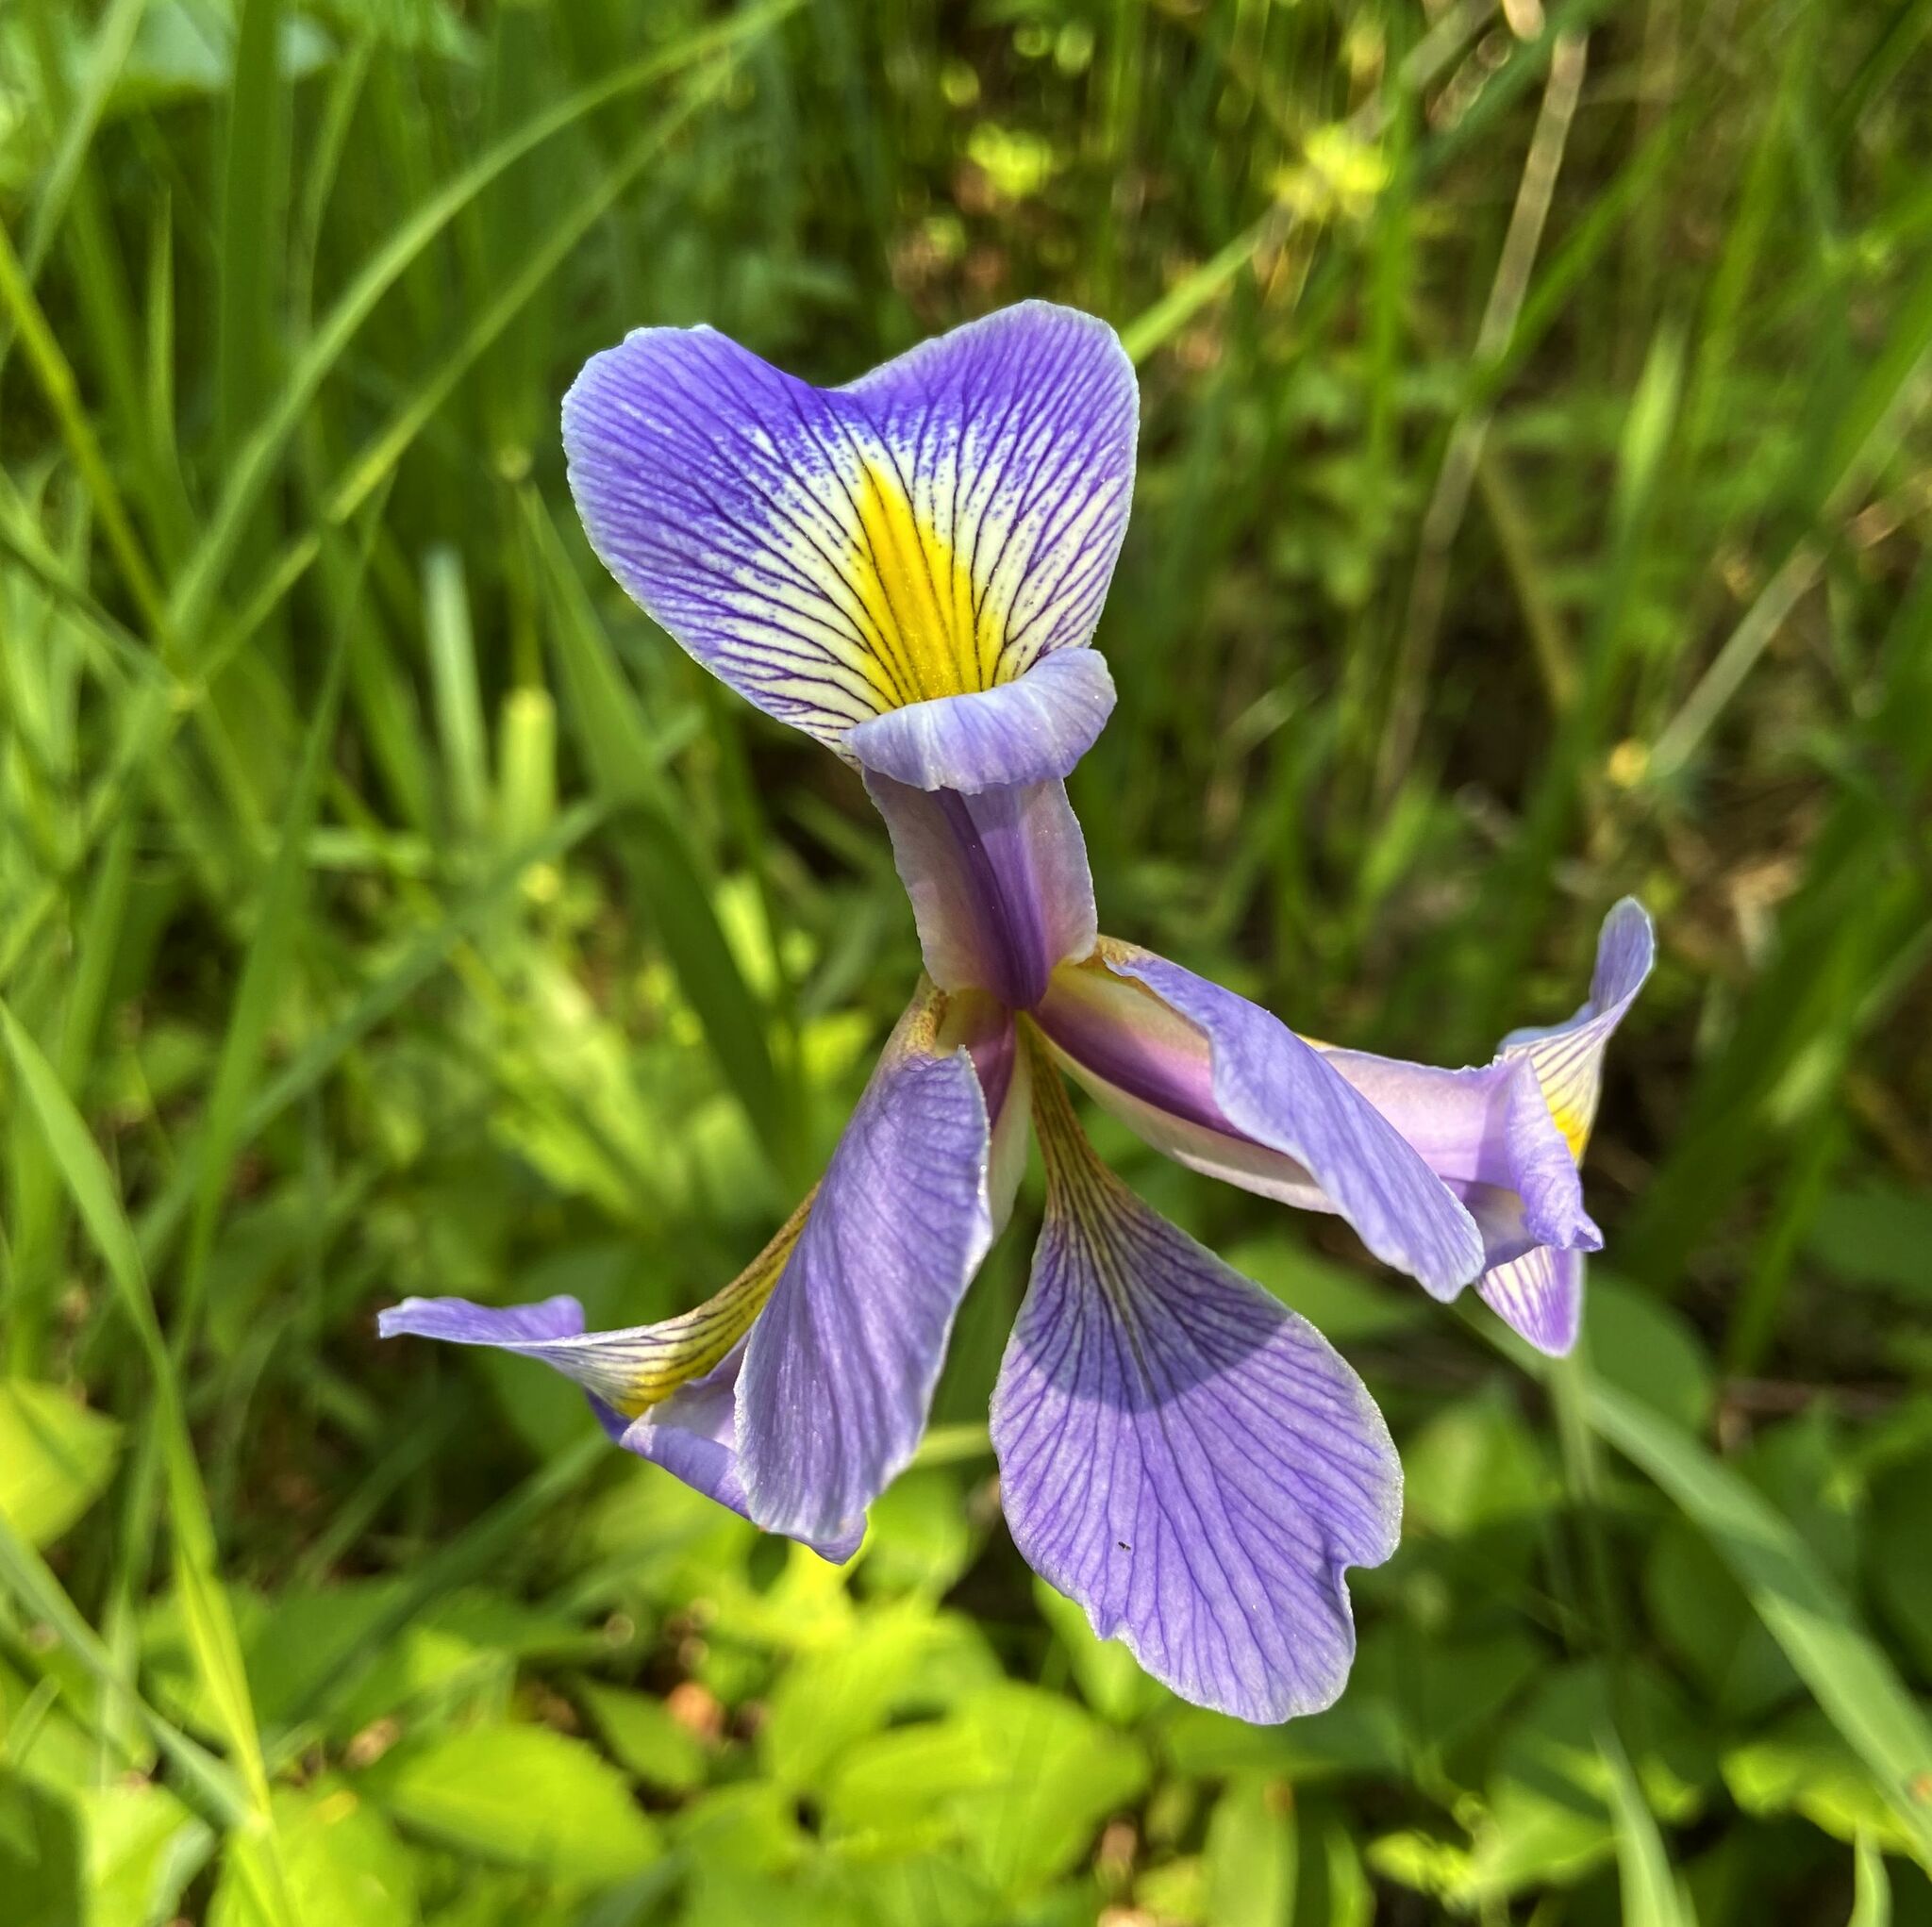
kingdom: Plantae
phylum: Tracheophyta
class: Liliopsida
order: Asparagales
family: Iridaceae
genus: Iris
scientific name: Iris virginica
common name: Southern blue flag
